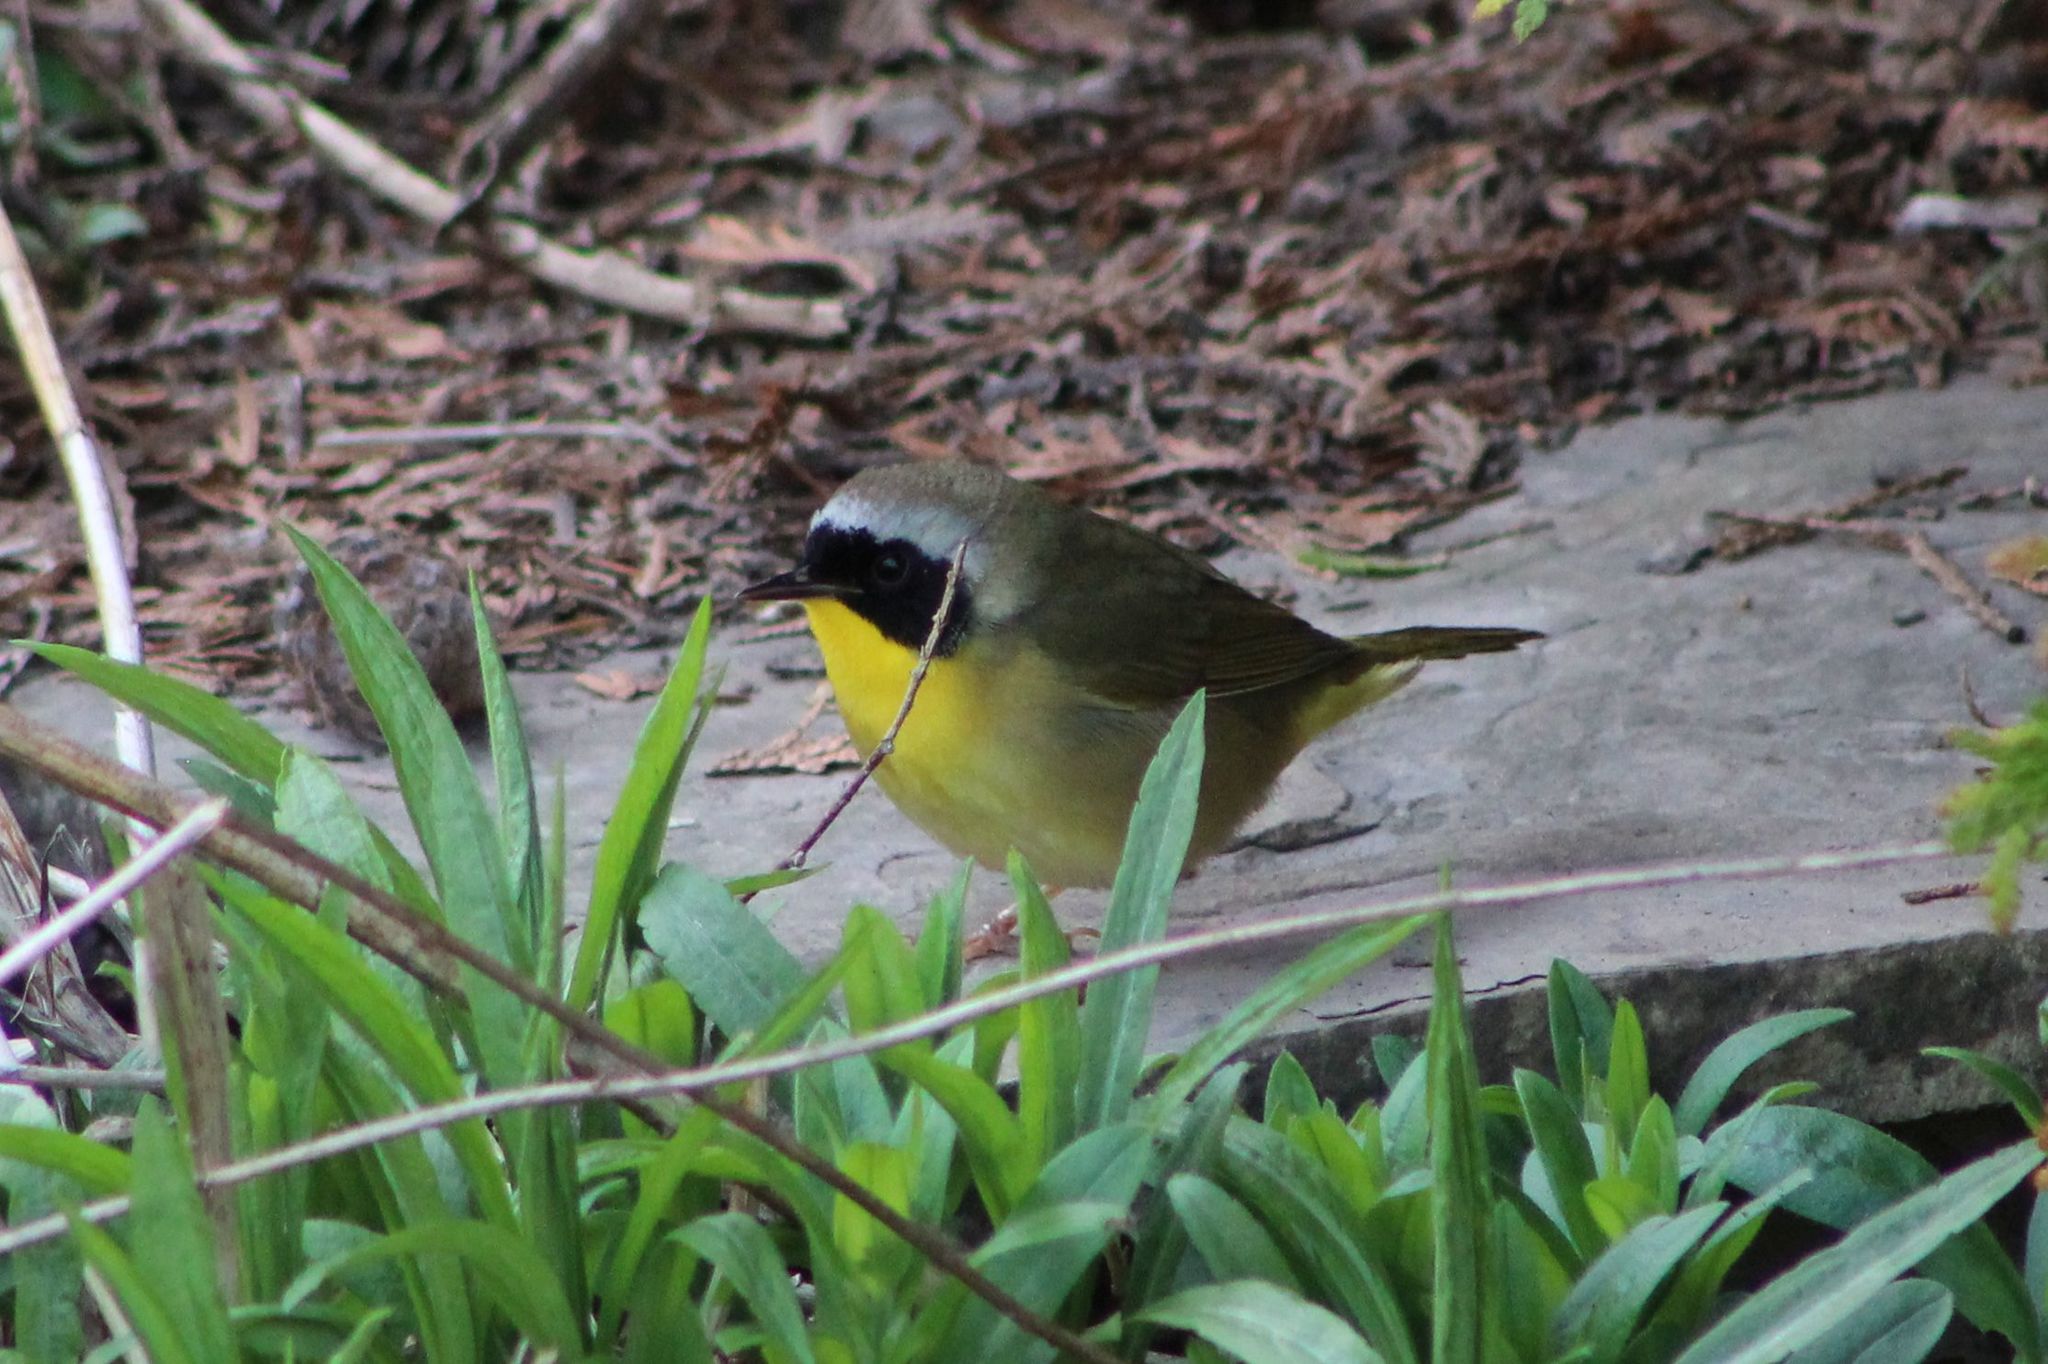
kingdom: Animalia
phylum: Chordata
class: Aves
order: Passeriformes
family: Parulidae
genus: Geothlypis
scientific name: Geothlypis trichas
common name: Common yellowthroat
